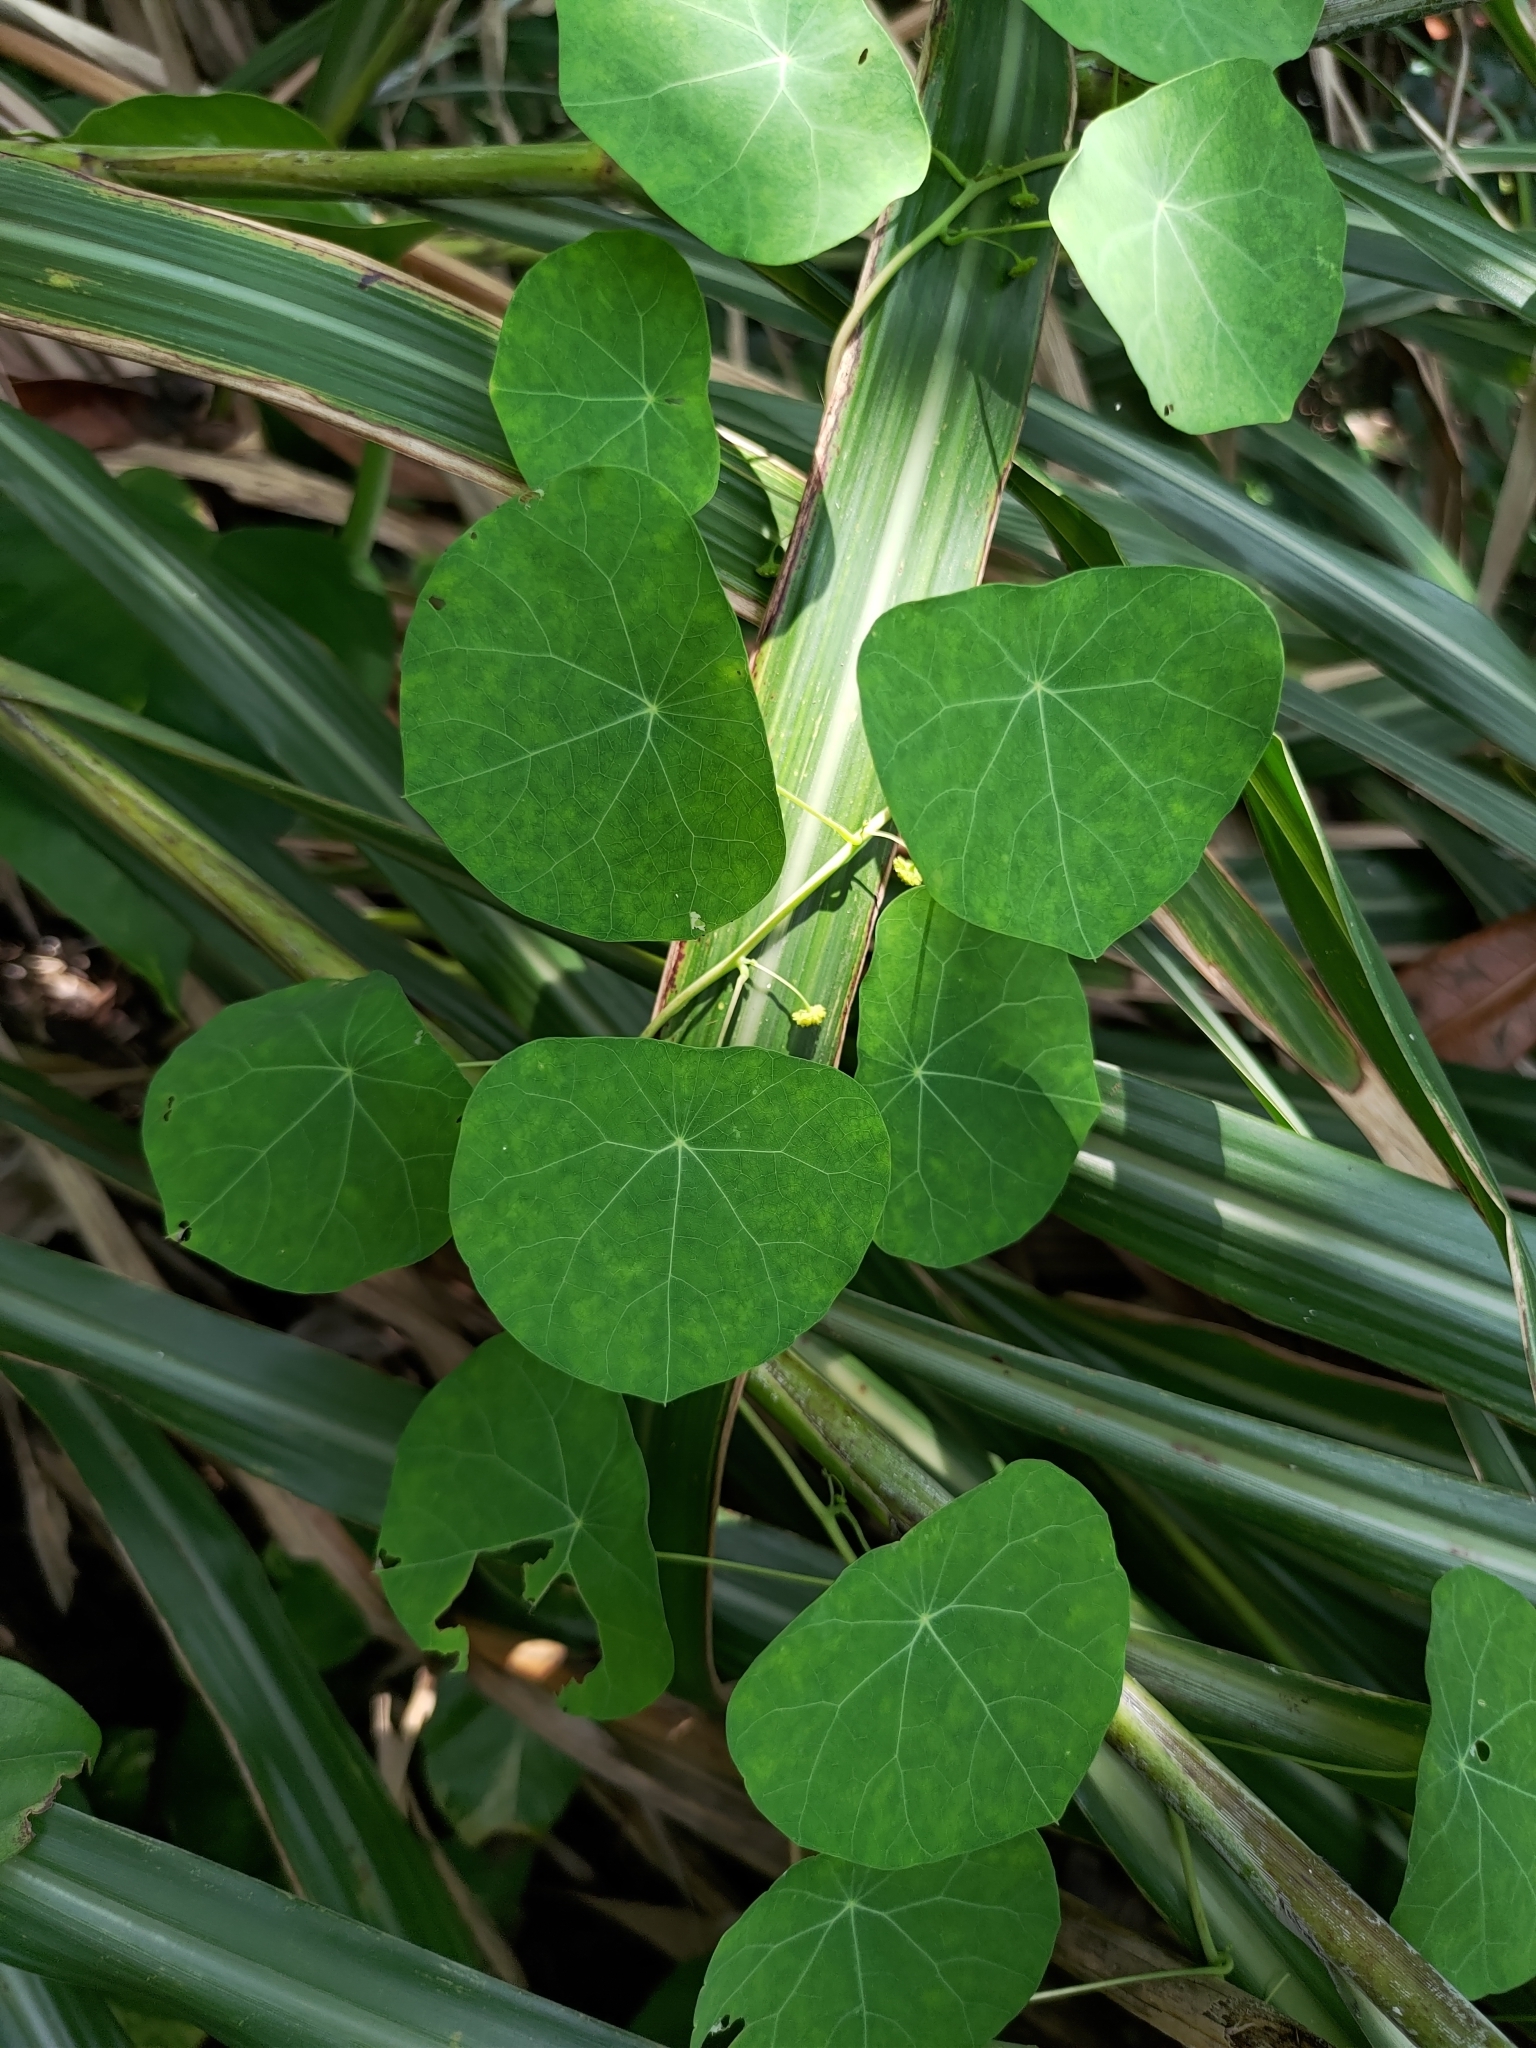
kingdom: Plantae
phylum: Tracheophyta
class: Magnoliopsida
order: Ranunculales
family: Menispermaceae
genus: Stephania
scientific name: Stephania cephalantha
